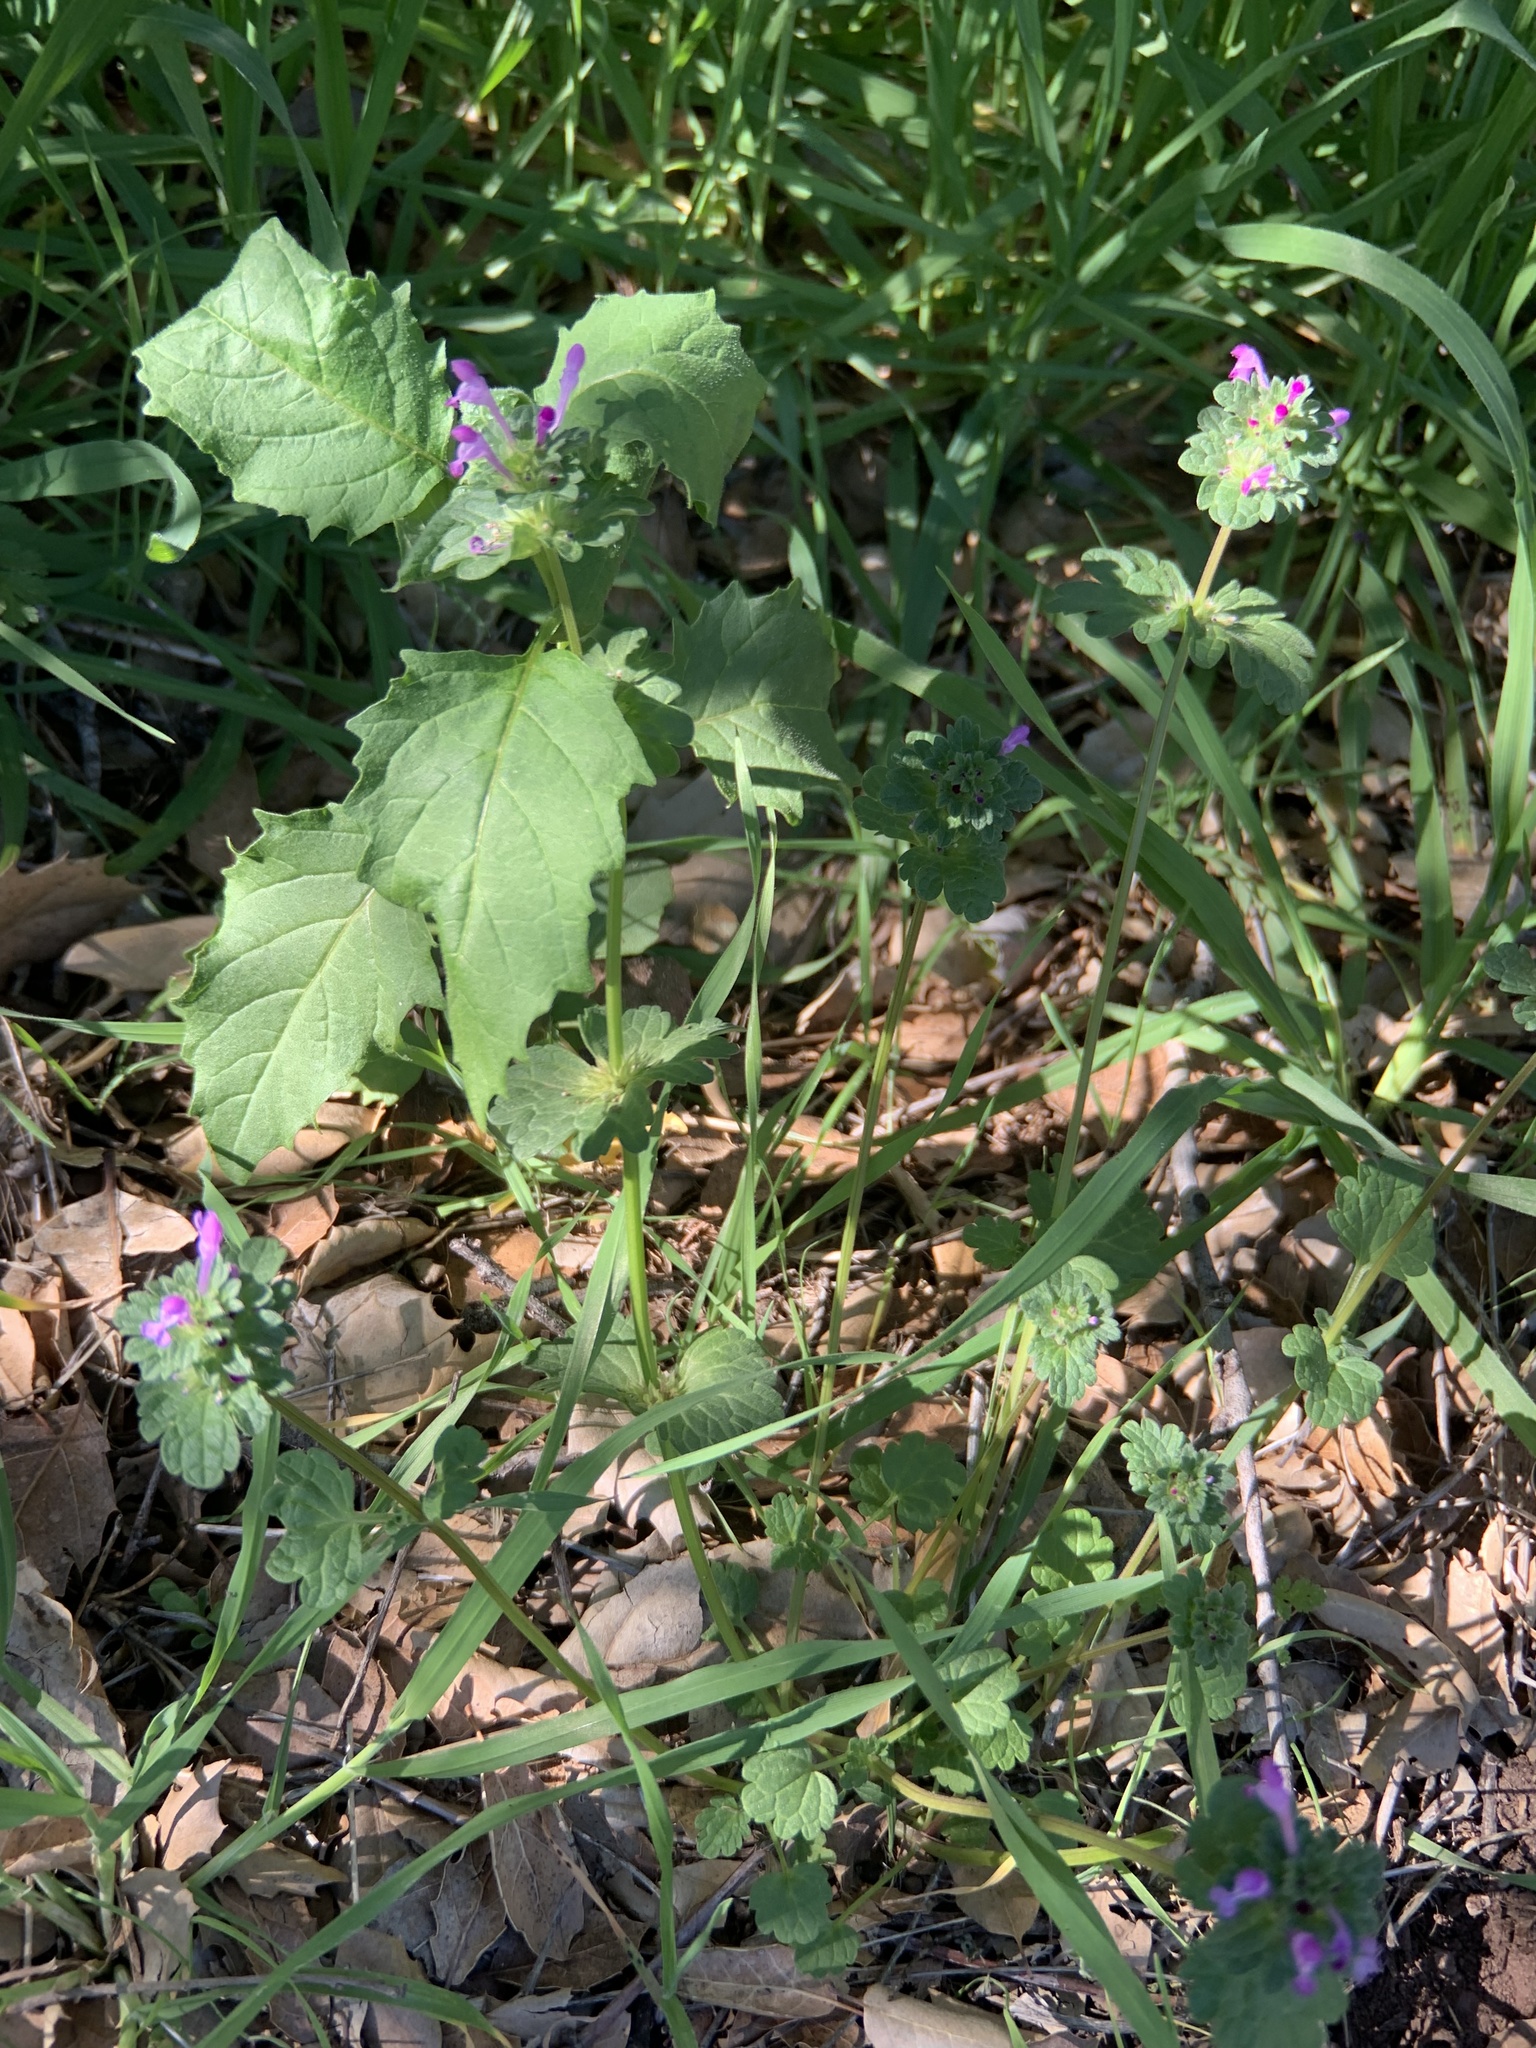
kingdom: Plantae
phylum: Tracheophyta
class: Magnoliopsida
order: Lamiales
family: Lamiaceae
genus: Lamium
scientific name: Lamium amplexicaule
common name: Henbit dead-nettle
